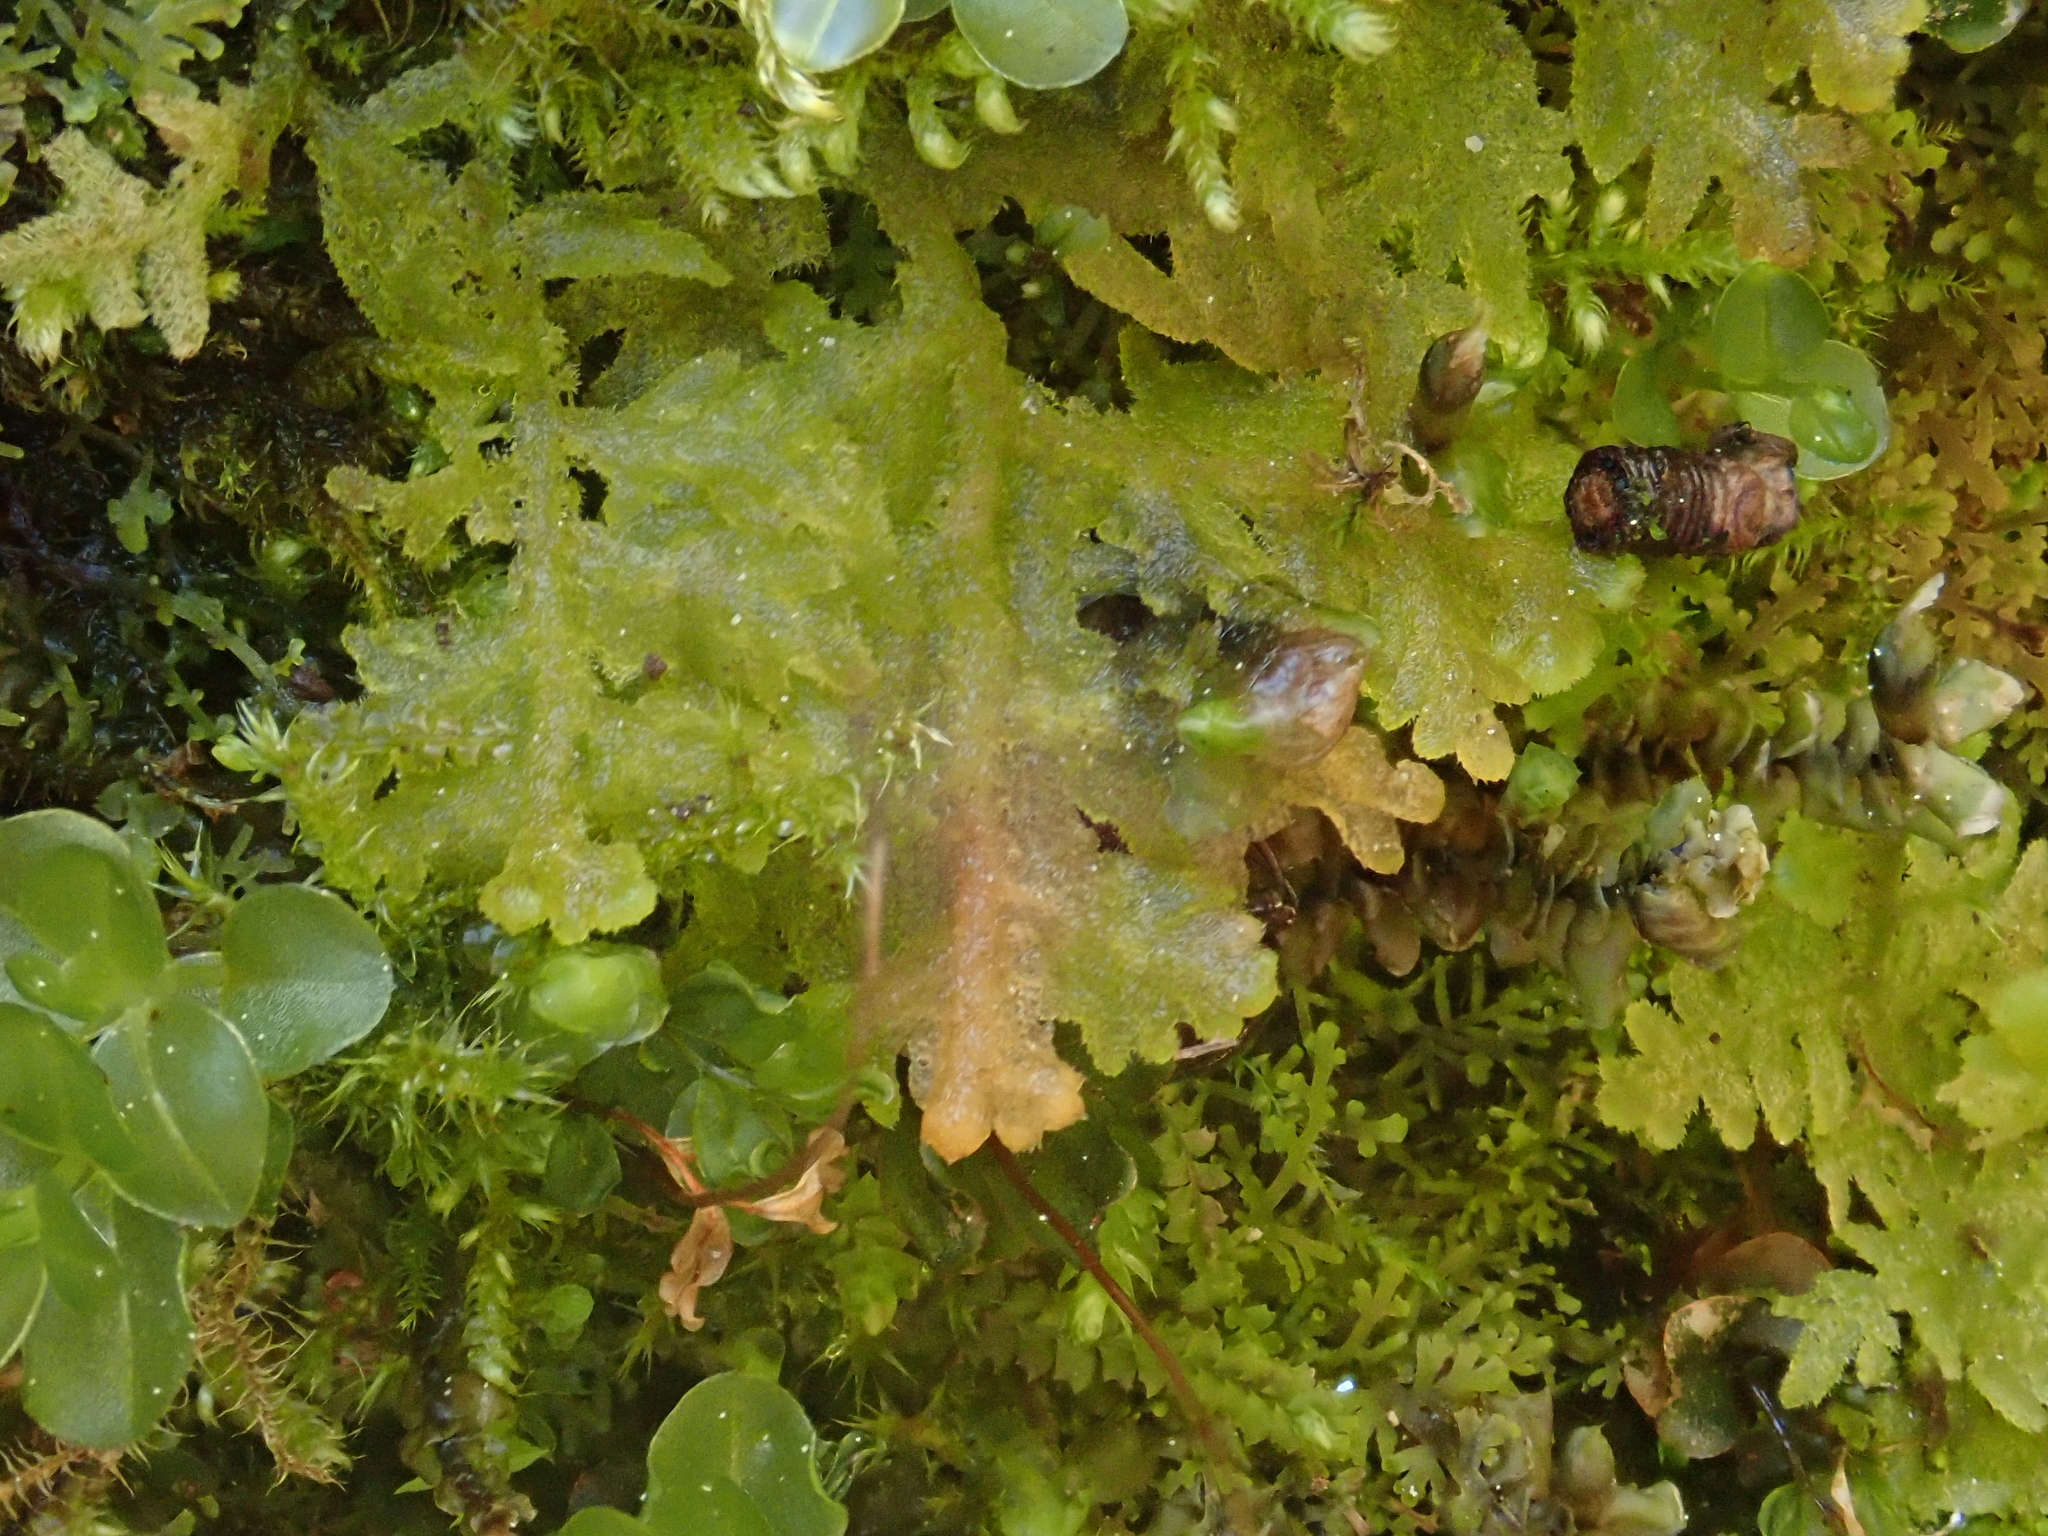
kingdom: Plantae
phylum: Marchantiophyta
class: Jungermanniopsida
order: Jungermanniales
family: Trichocoleaceae
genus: Trichocolea
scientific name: Trichocolea tomentella
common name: Woolly liverwort
